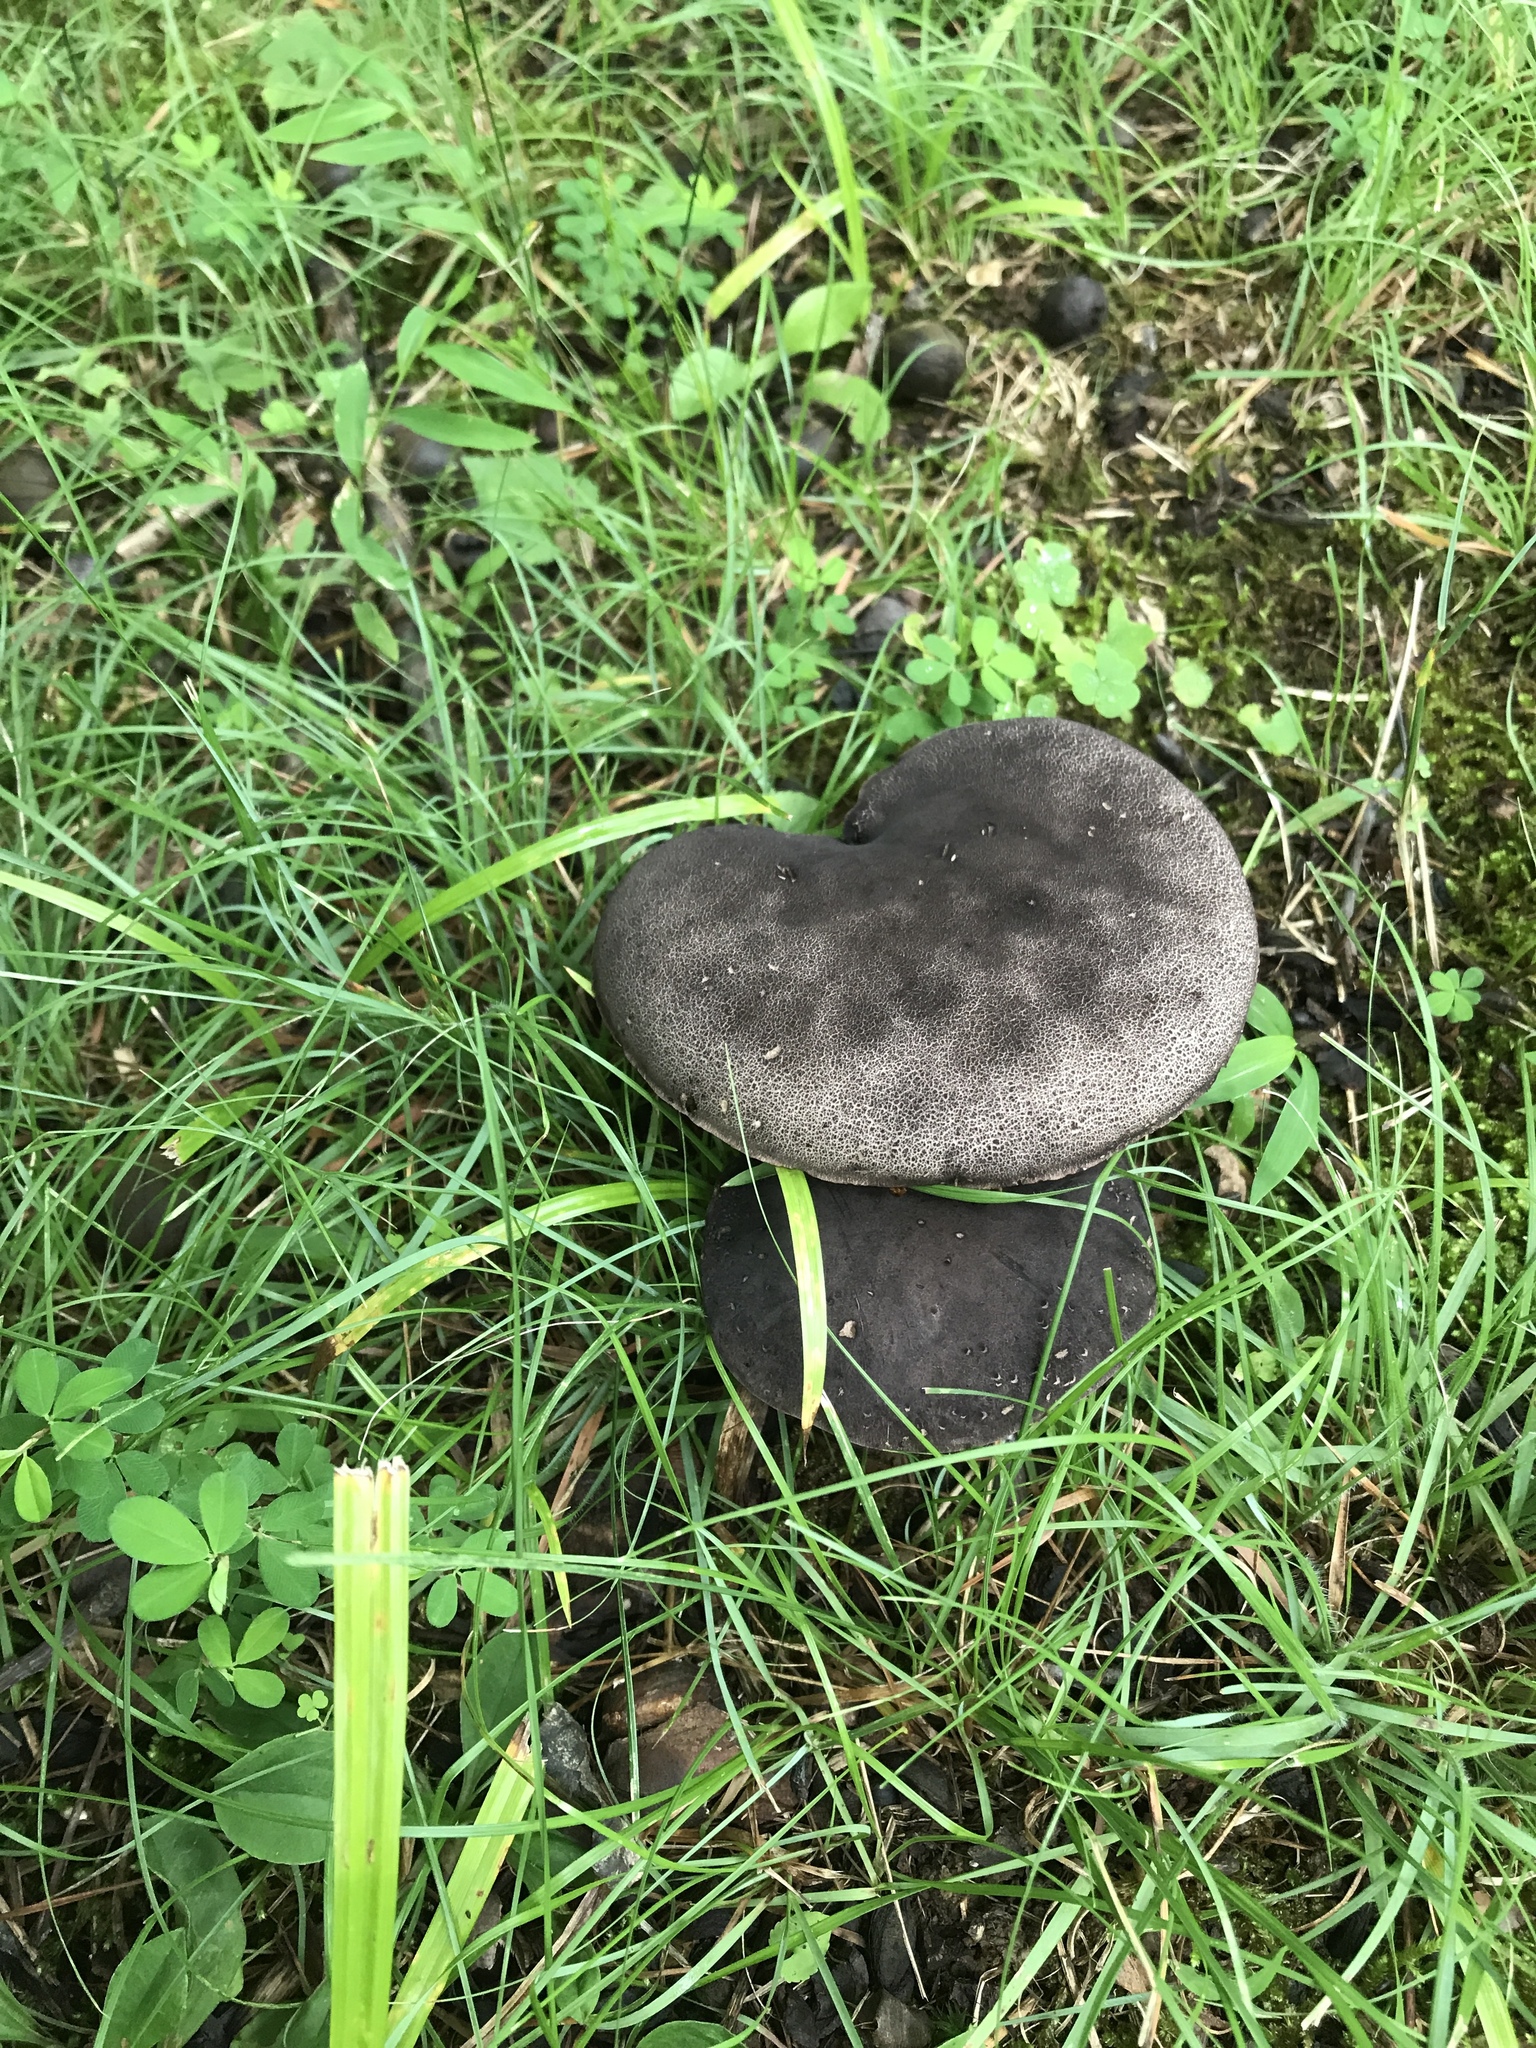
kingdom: Fungi
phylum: Basidiomycota
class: Agaricomycetes
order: Boletales
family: Boletaceae
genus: Tylopilus
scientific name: Tylopilus alboater
